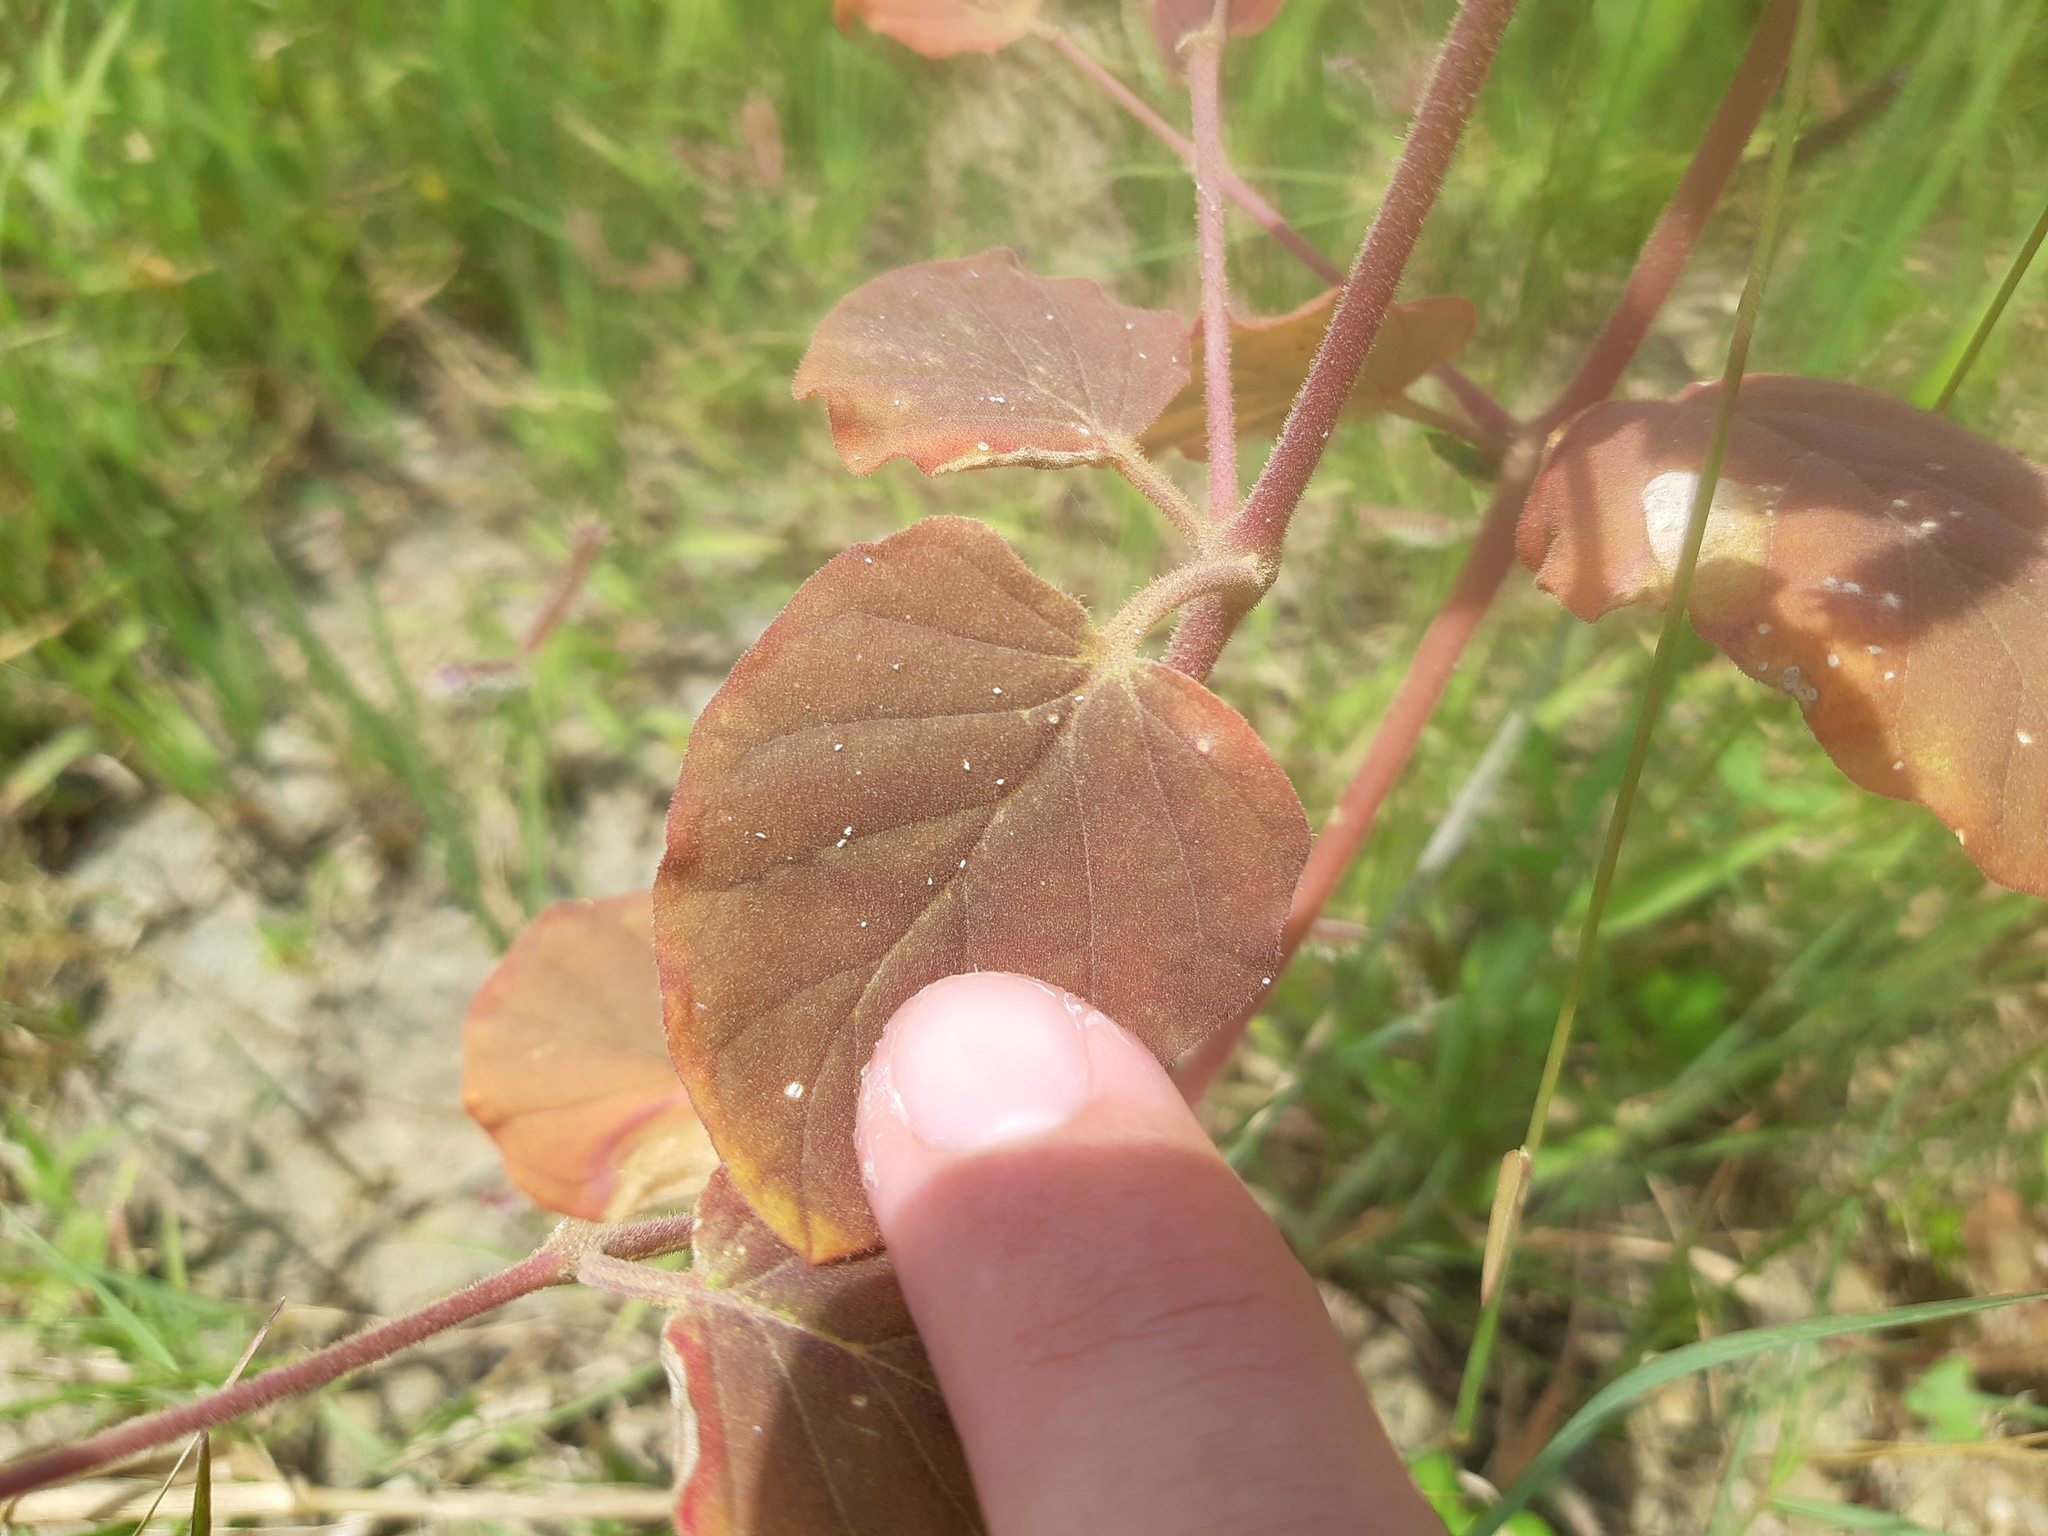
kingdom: Plantae
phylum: Tracheophyta
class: Magnoliopsida
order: Caryophyllales
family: Nyctaginaceae
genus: Boerhavia
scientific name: Boerhavia coccinea
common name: Scarlet spiderling
